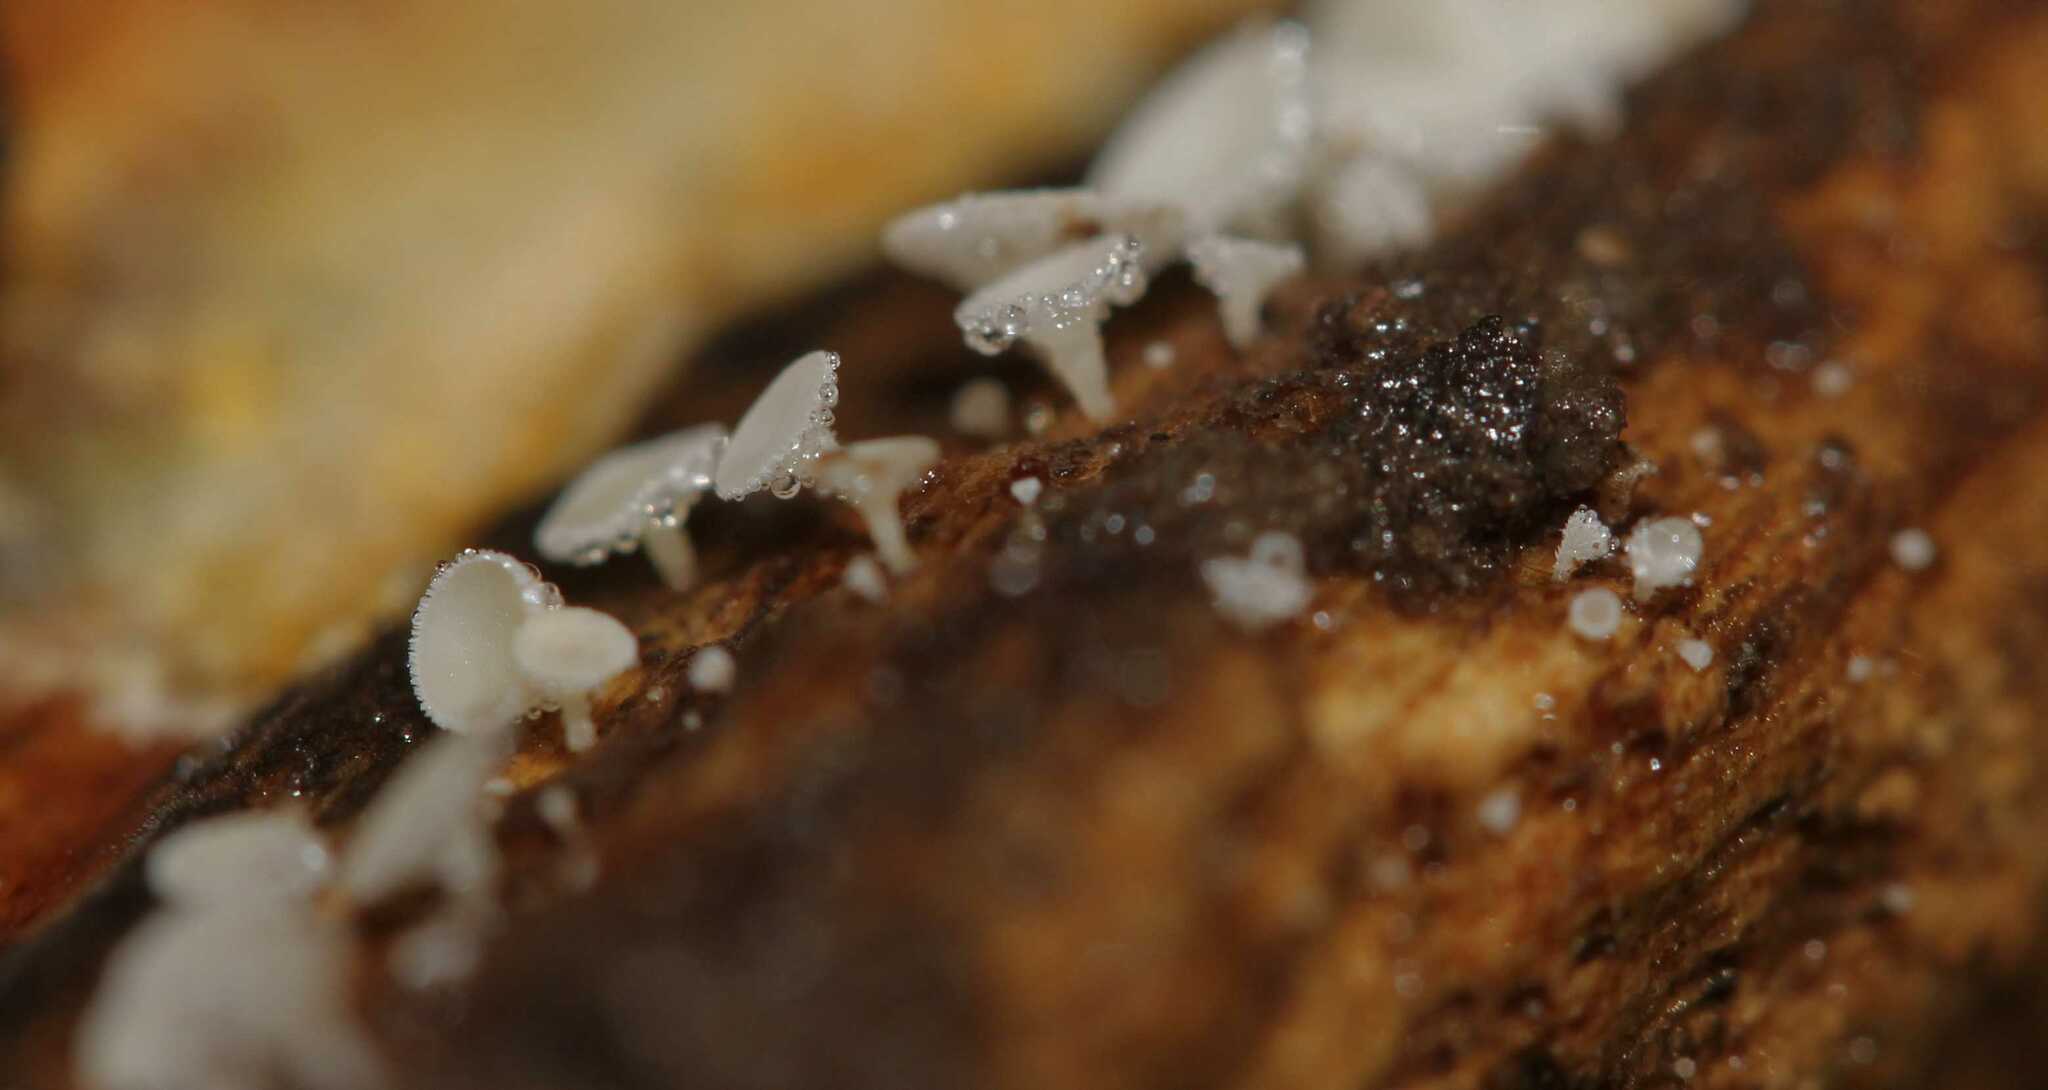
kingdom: Fungi
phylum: Ascomycota
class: Leotiomycetes
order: Helotiales
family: Lachnaceae
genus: Lachnum
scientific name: Lachnum
